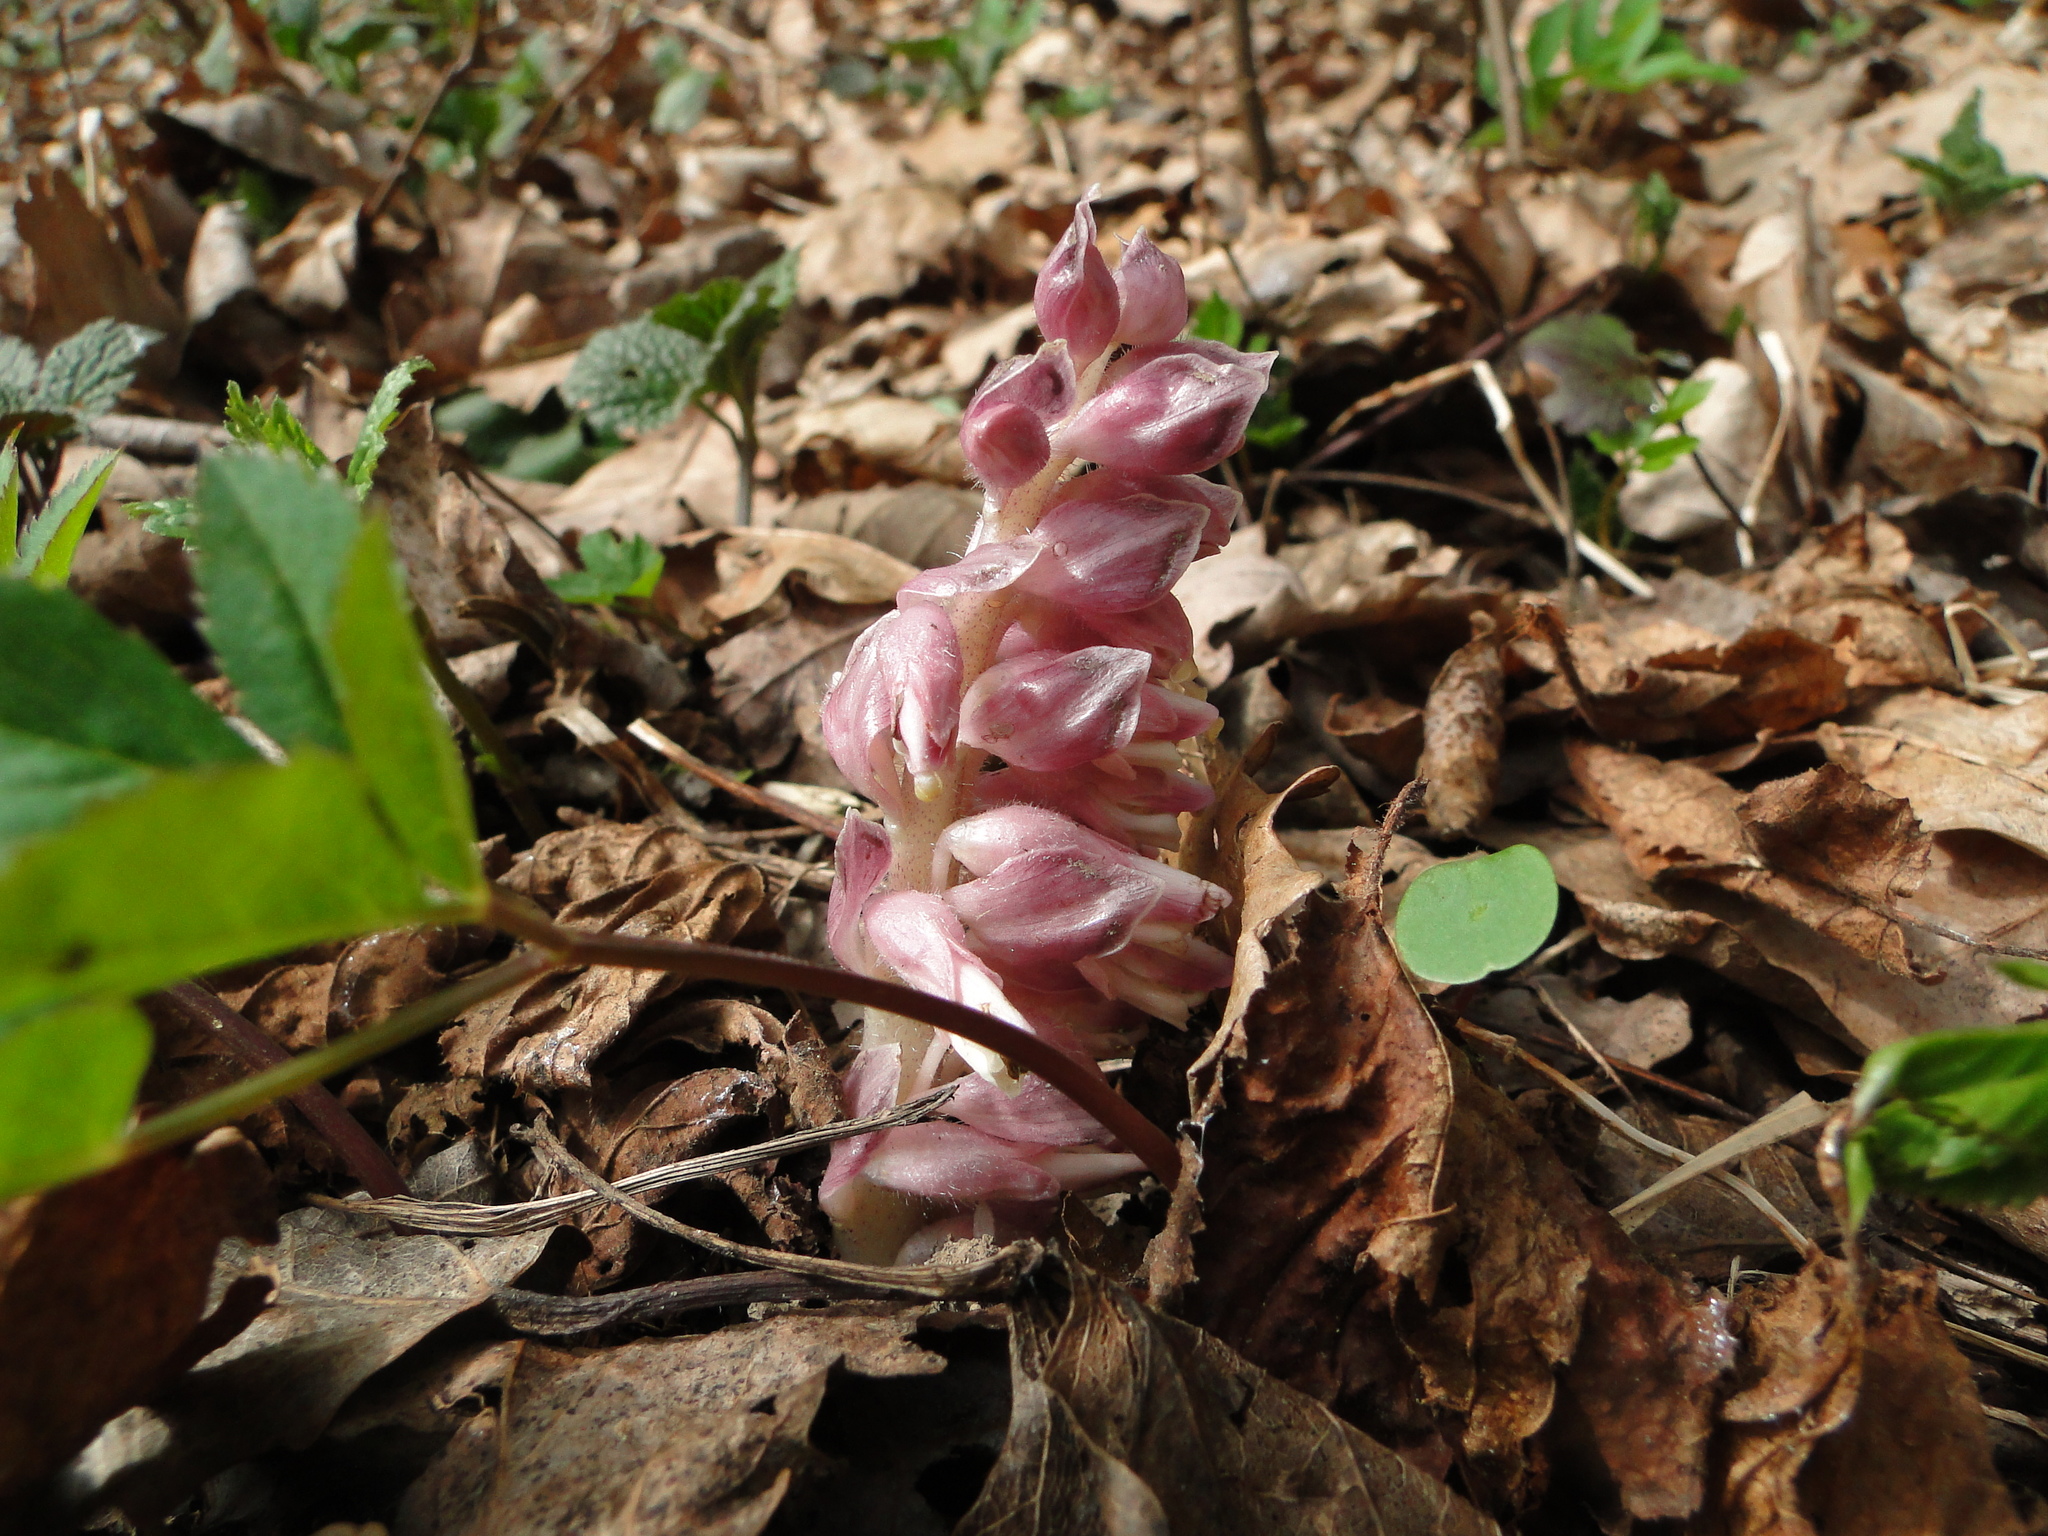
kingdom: Plantae
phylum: Tracheophyta
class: Magnoliopsida
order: Lamiales
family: Orobanchaceae
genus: Lathraea
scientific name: Lathraea squamaria
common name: Toothwort
